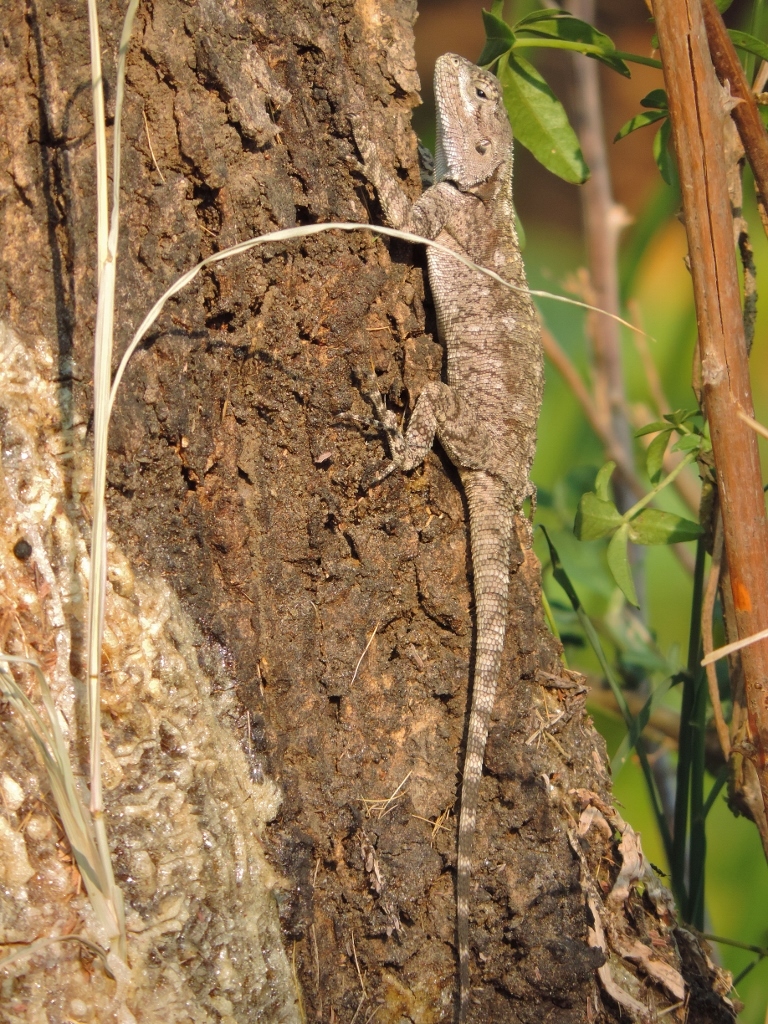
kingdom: Animalia
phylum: Chordata
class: Squamata
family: Agamidae
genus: Acanthocercus
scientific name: Acanthocercus atricollis
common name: Southern tree agama
